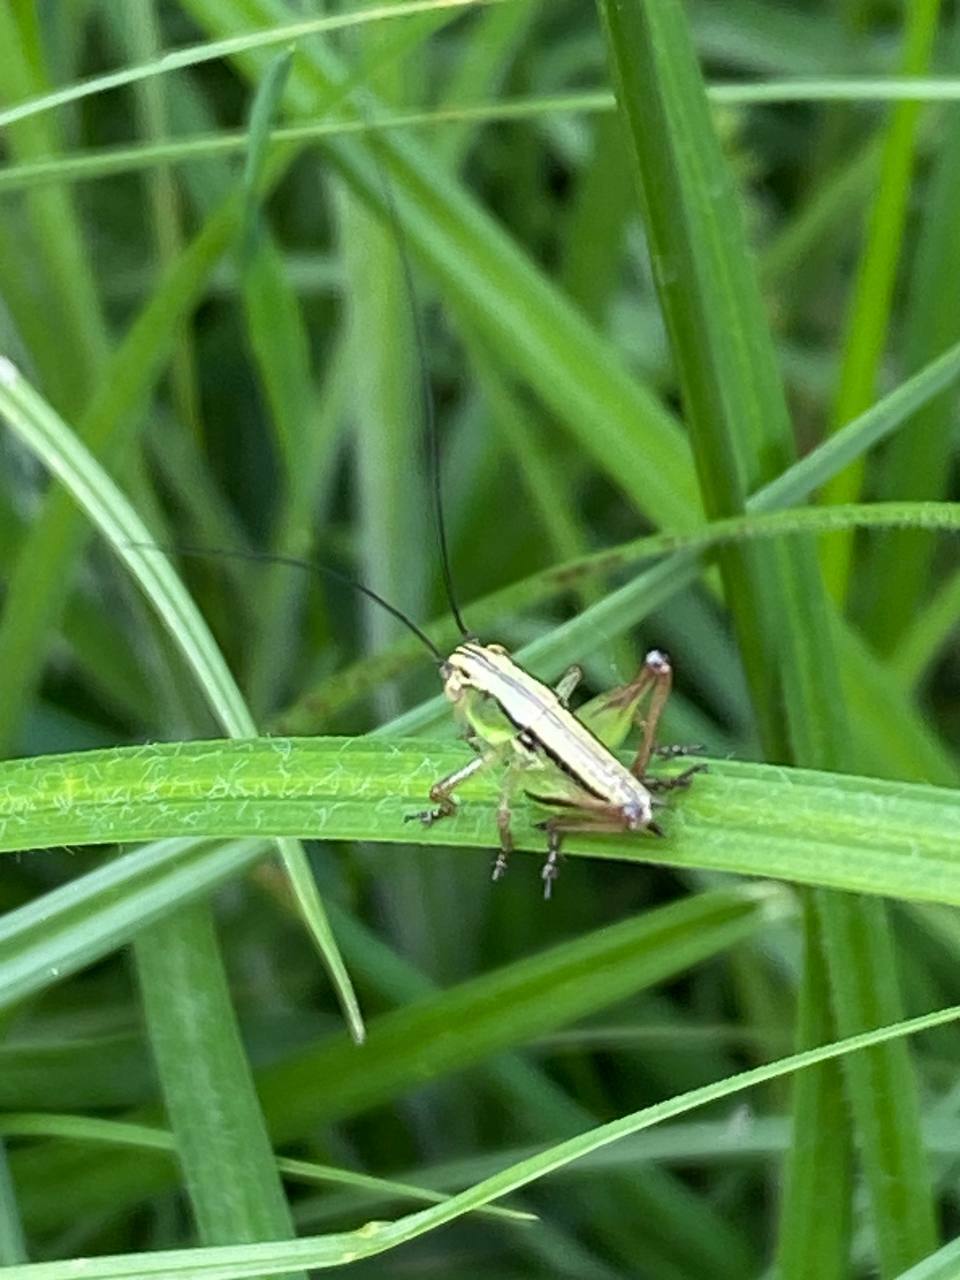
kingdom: Animalia
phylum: Arthropoda
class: Insecta
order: Orthoptera
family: Tettigoniidae
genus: Roeseliana
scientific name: Roeseliana roeselii
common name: Roesel's bush cricket
